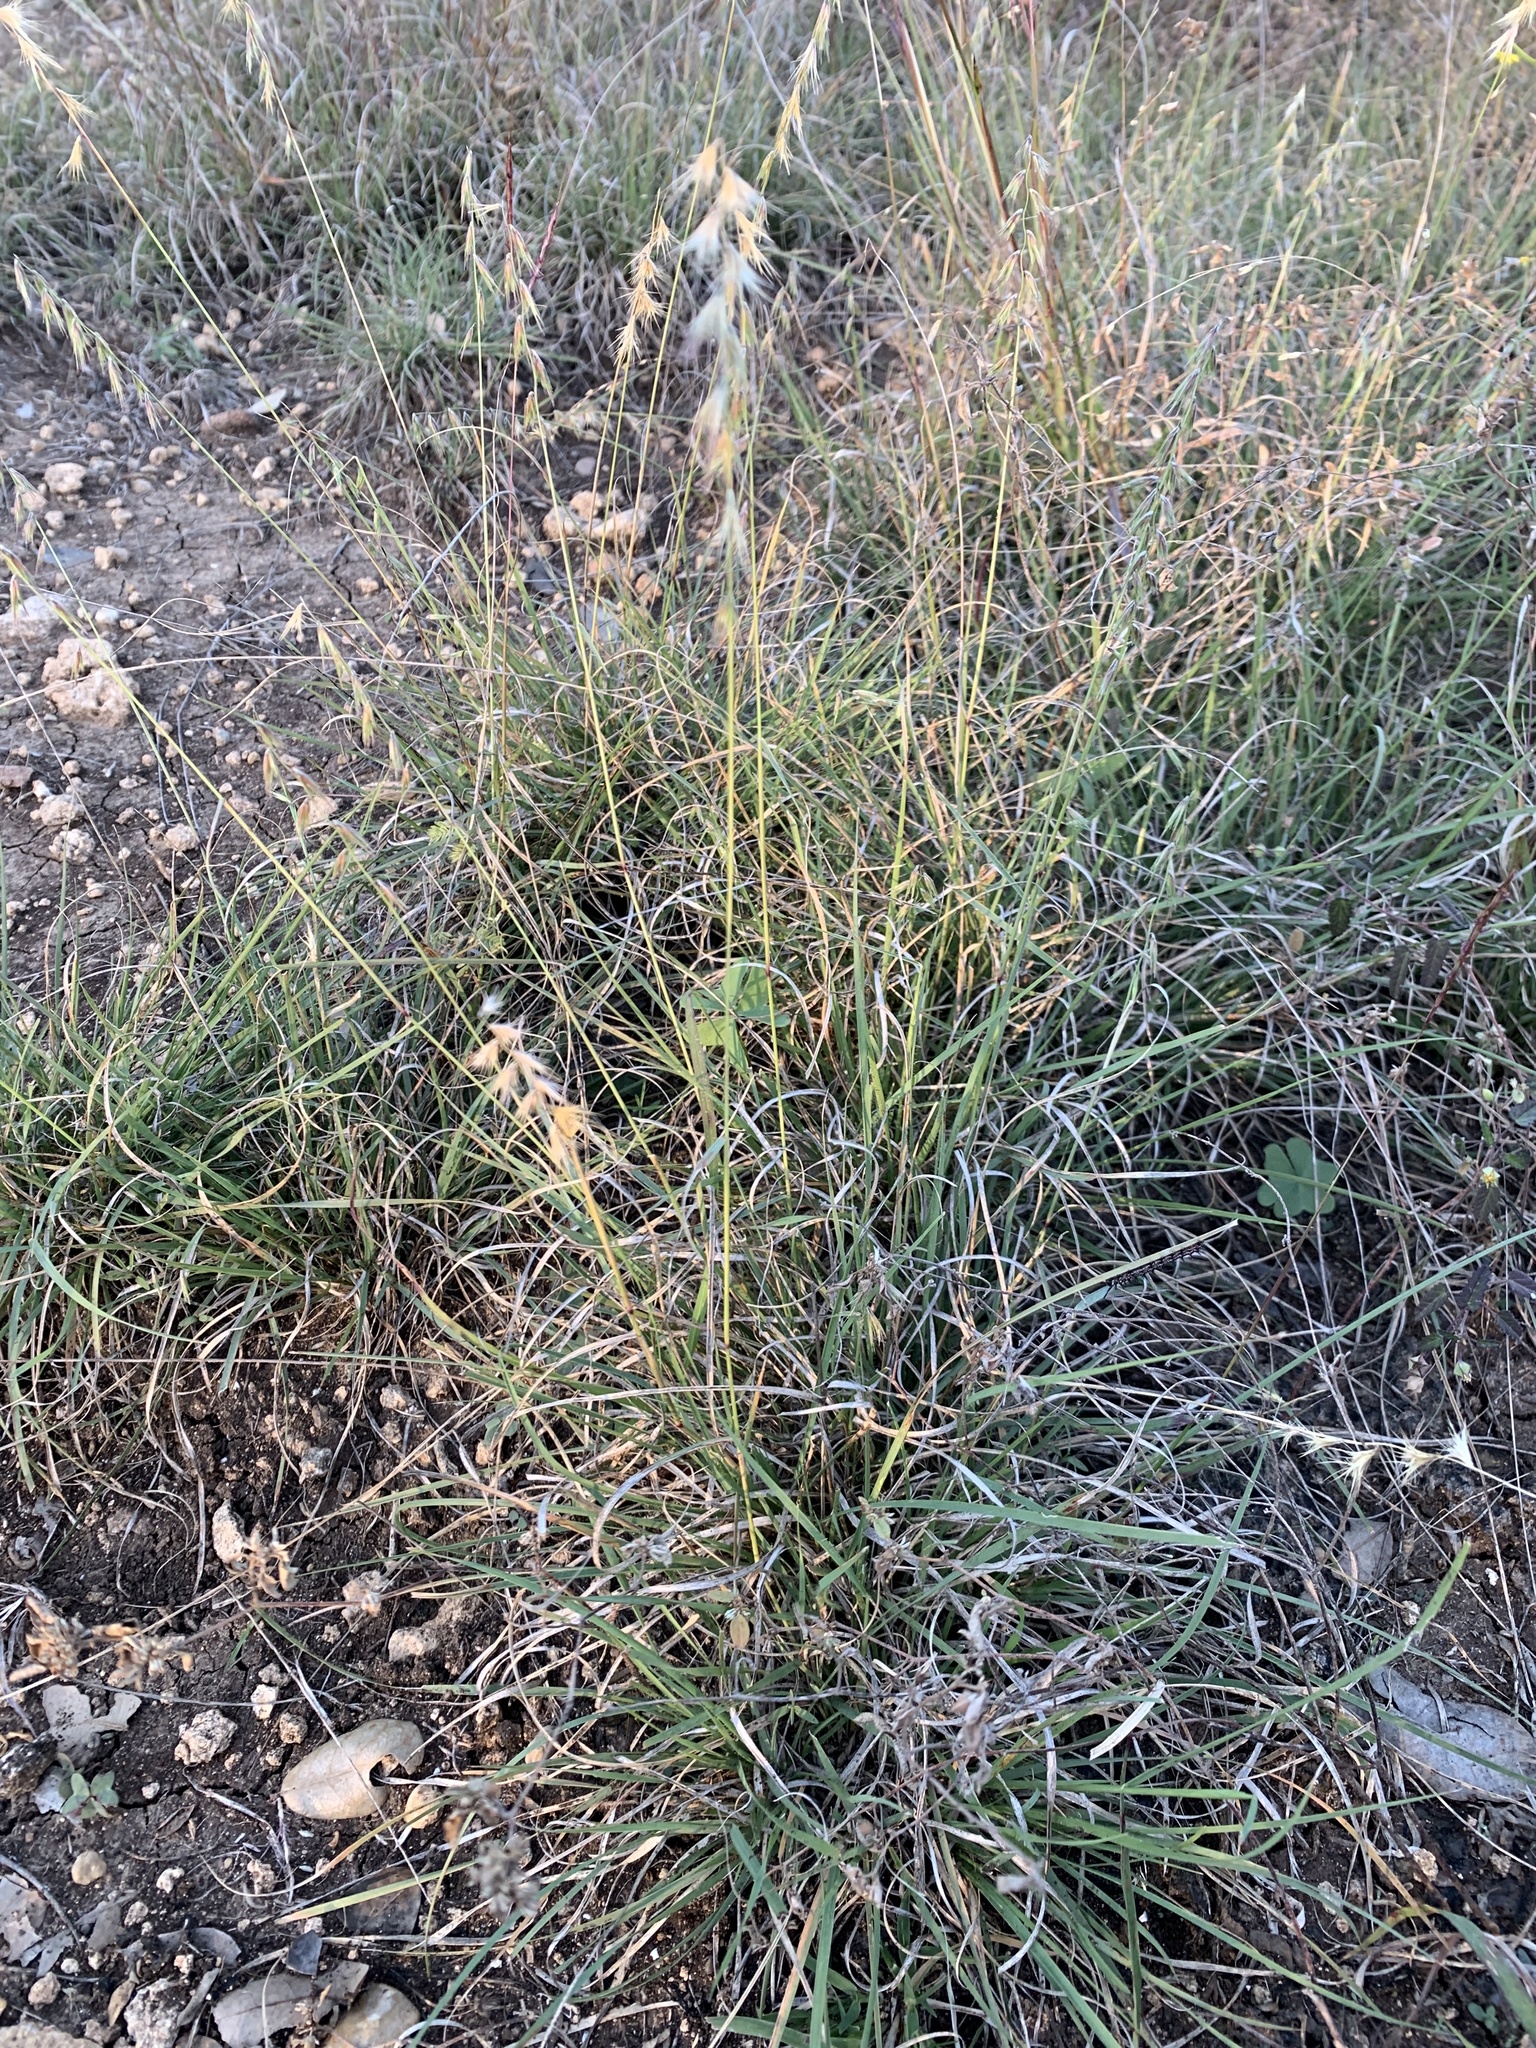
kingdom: Plantae
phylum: Tracheophyta
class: Liliopsida
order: Poales
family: Poaceae
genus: Bouteloua
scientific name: Bouteloua rigidiseta
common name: Texas grama
